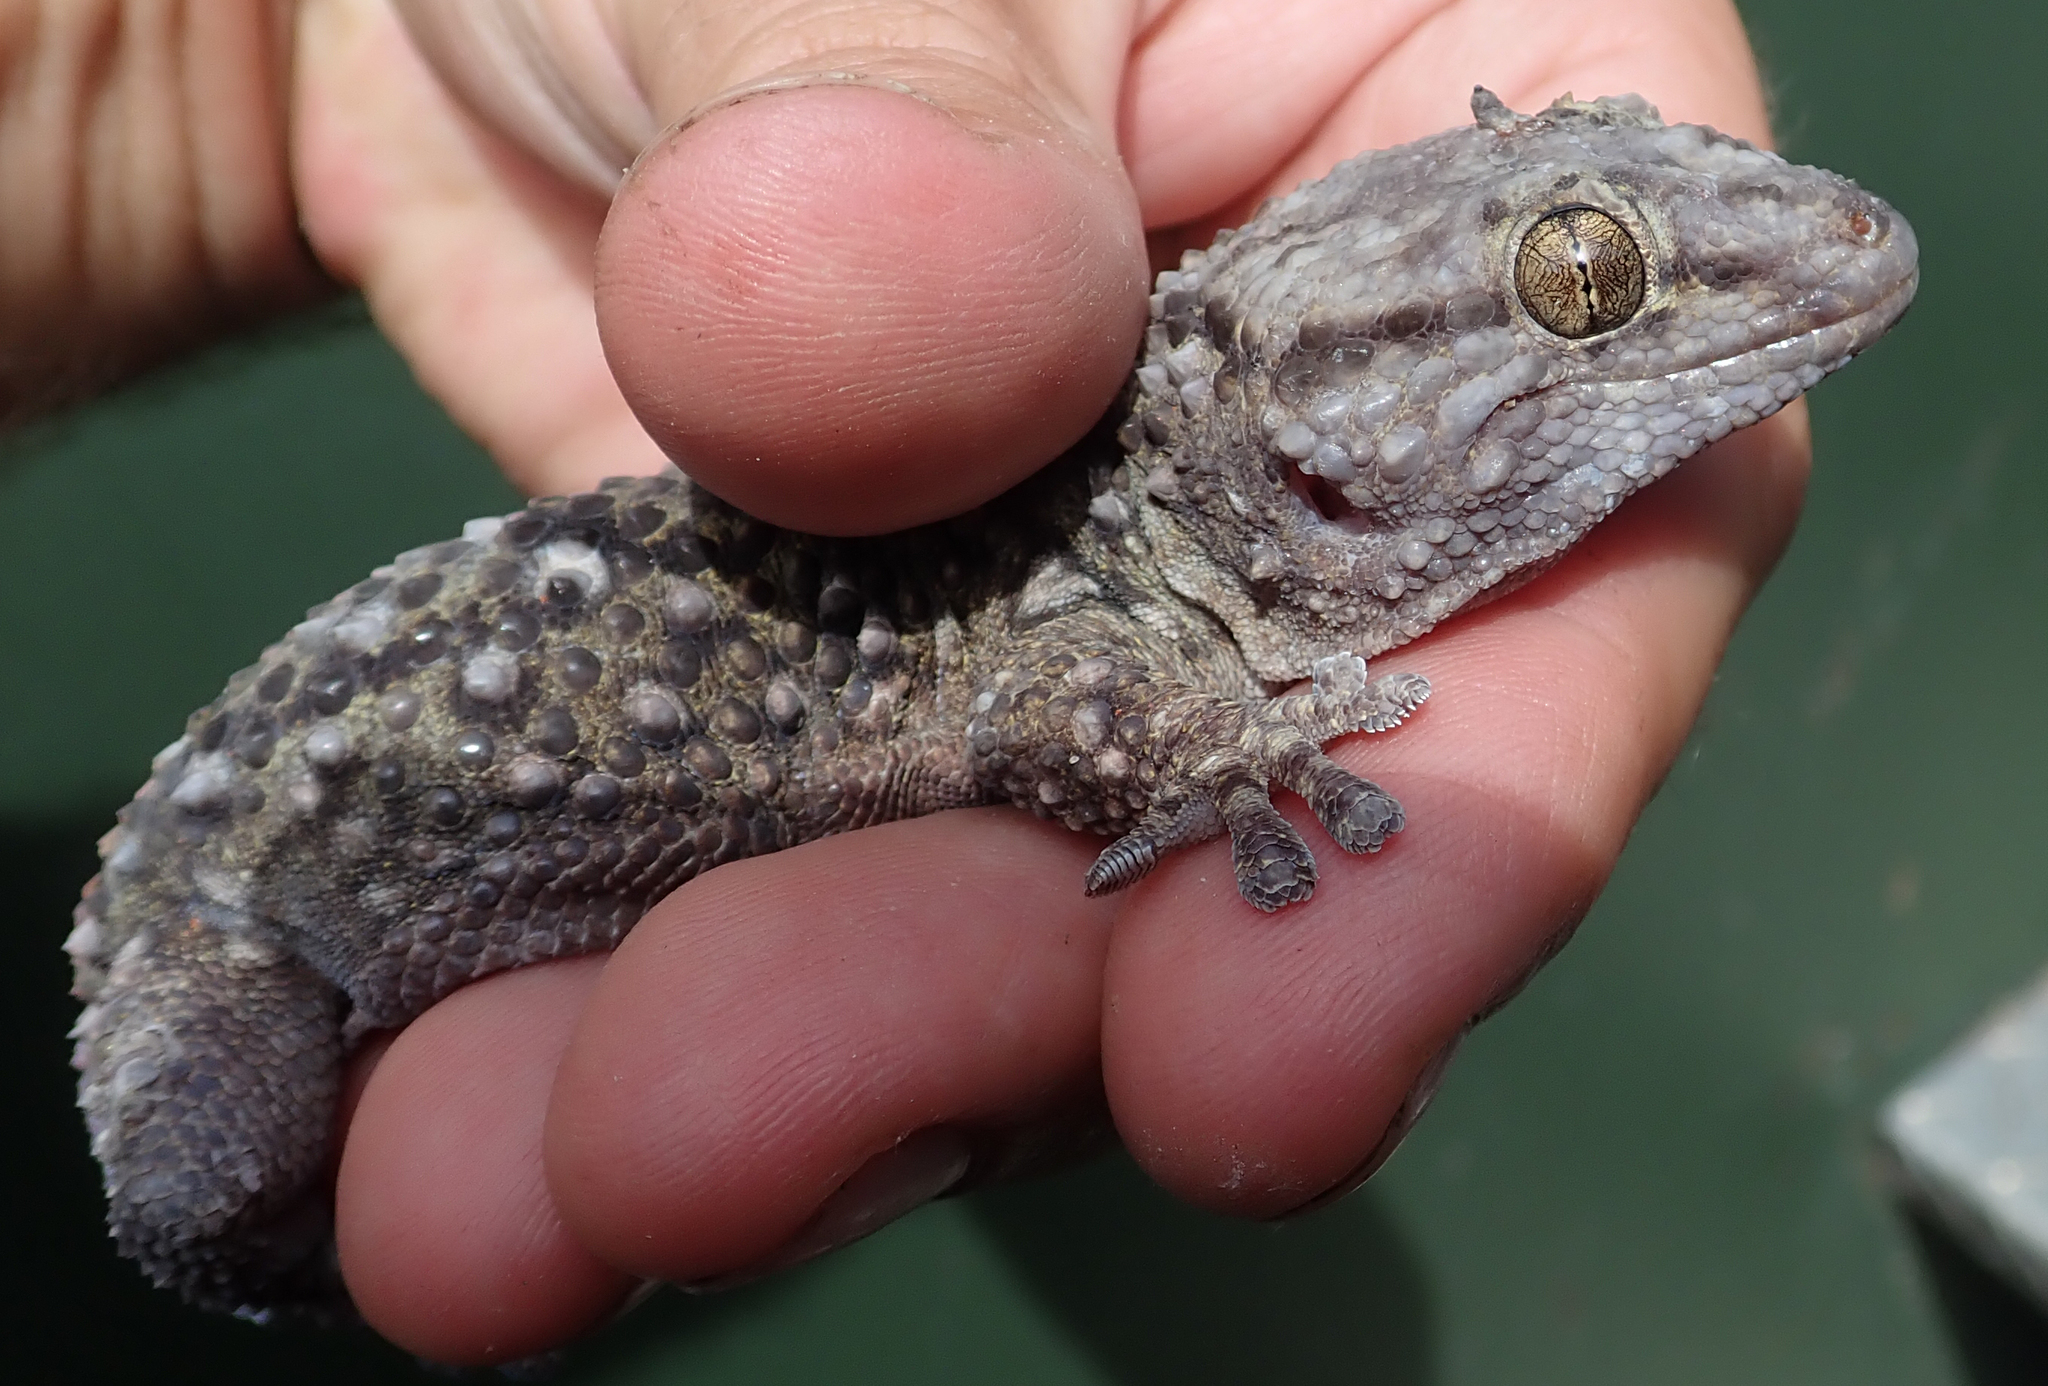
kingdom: Animalia
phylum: Chordata
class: Squamata
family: Gekkonidae
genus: Chondrodactylus
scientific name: Chondrodactylus laevigatus
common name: Fischer's thick-toed gecko
